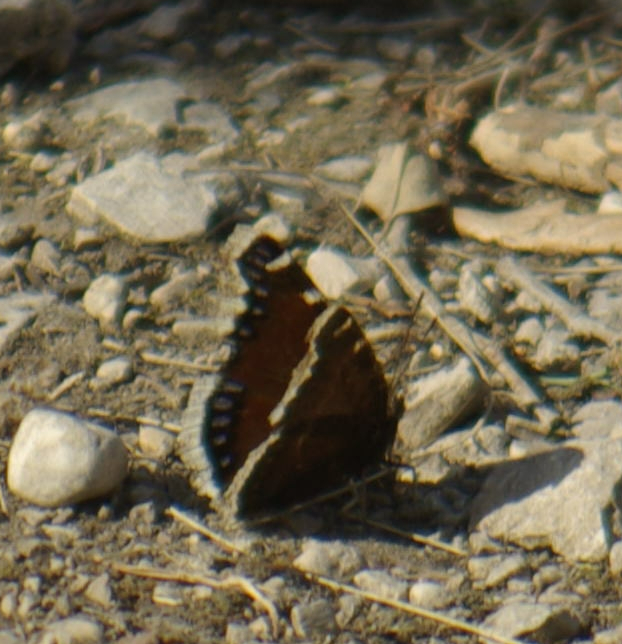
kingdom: Animalia
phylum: Arthropoda
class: Insecta
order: Lepidoptera
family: Nymphalidae
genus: Nymphalis
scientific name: Nymphalis antiopa
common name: Camberwell beauty
